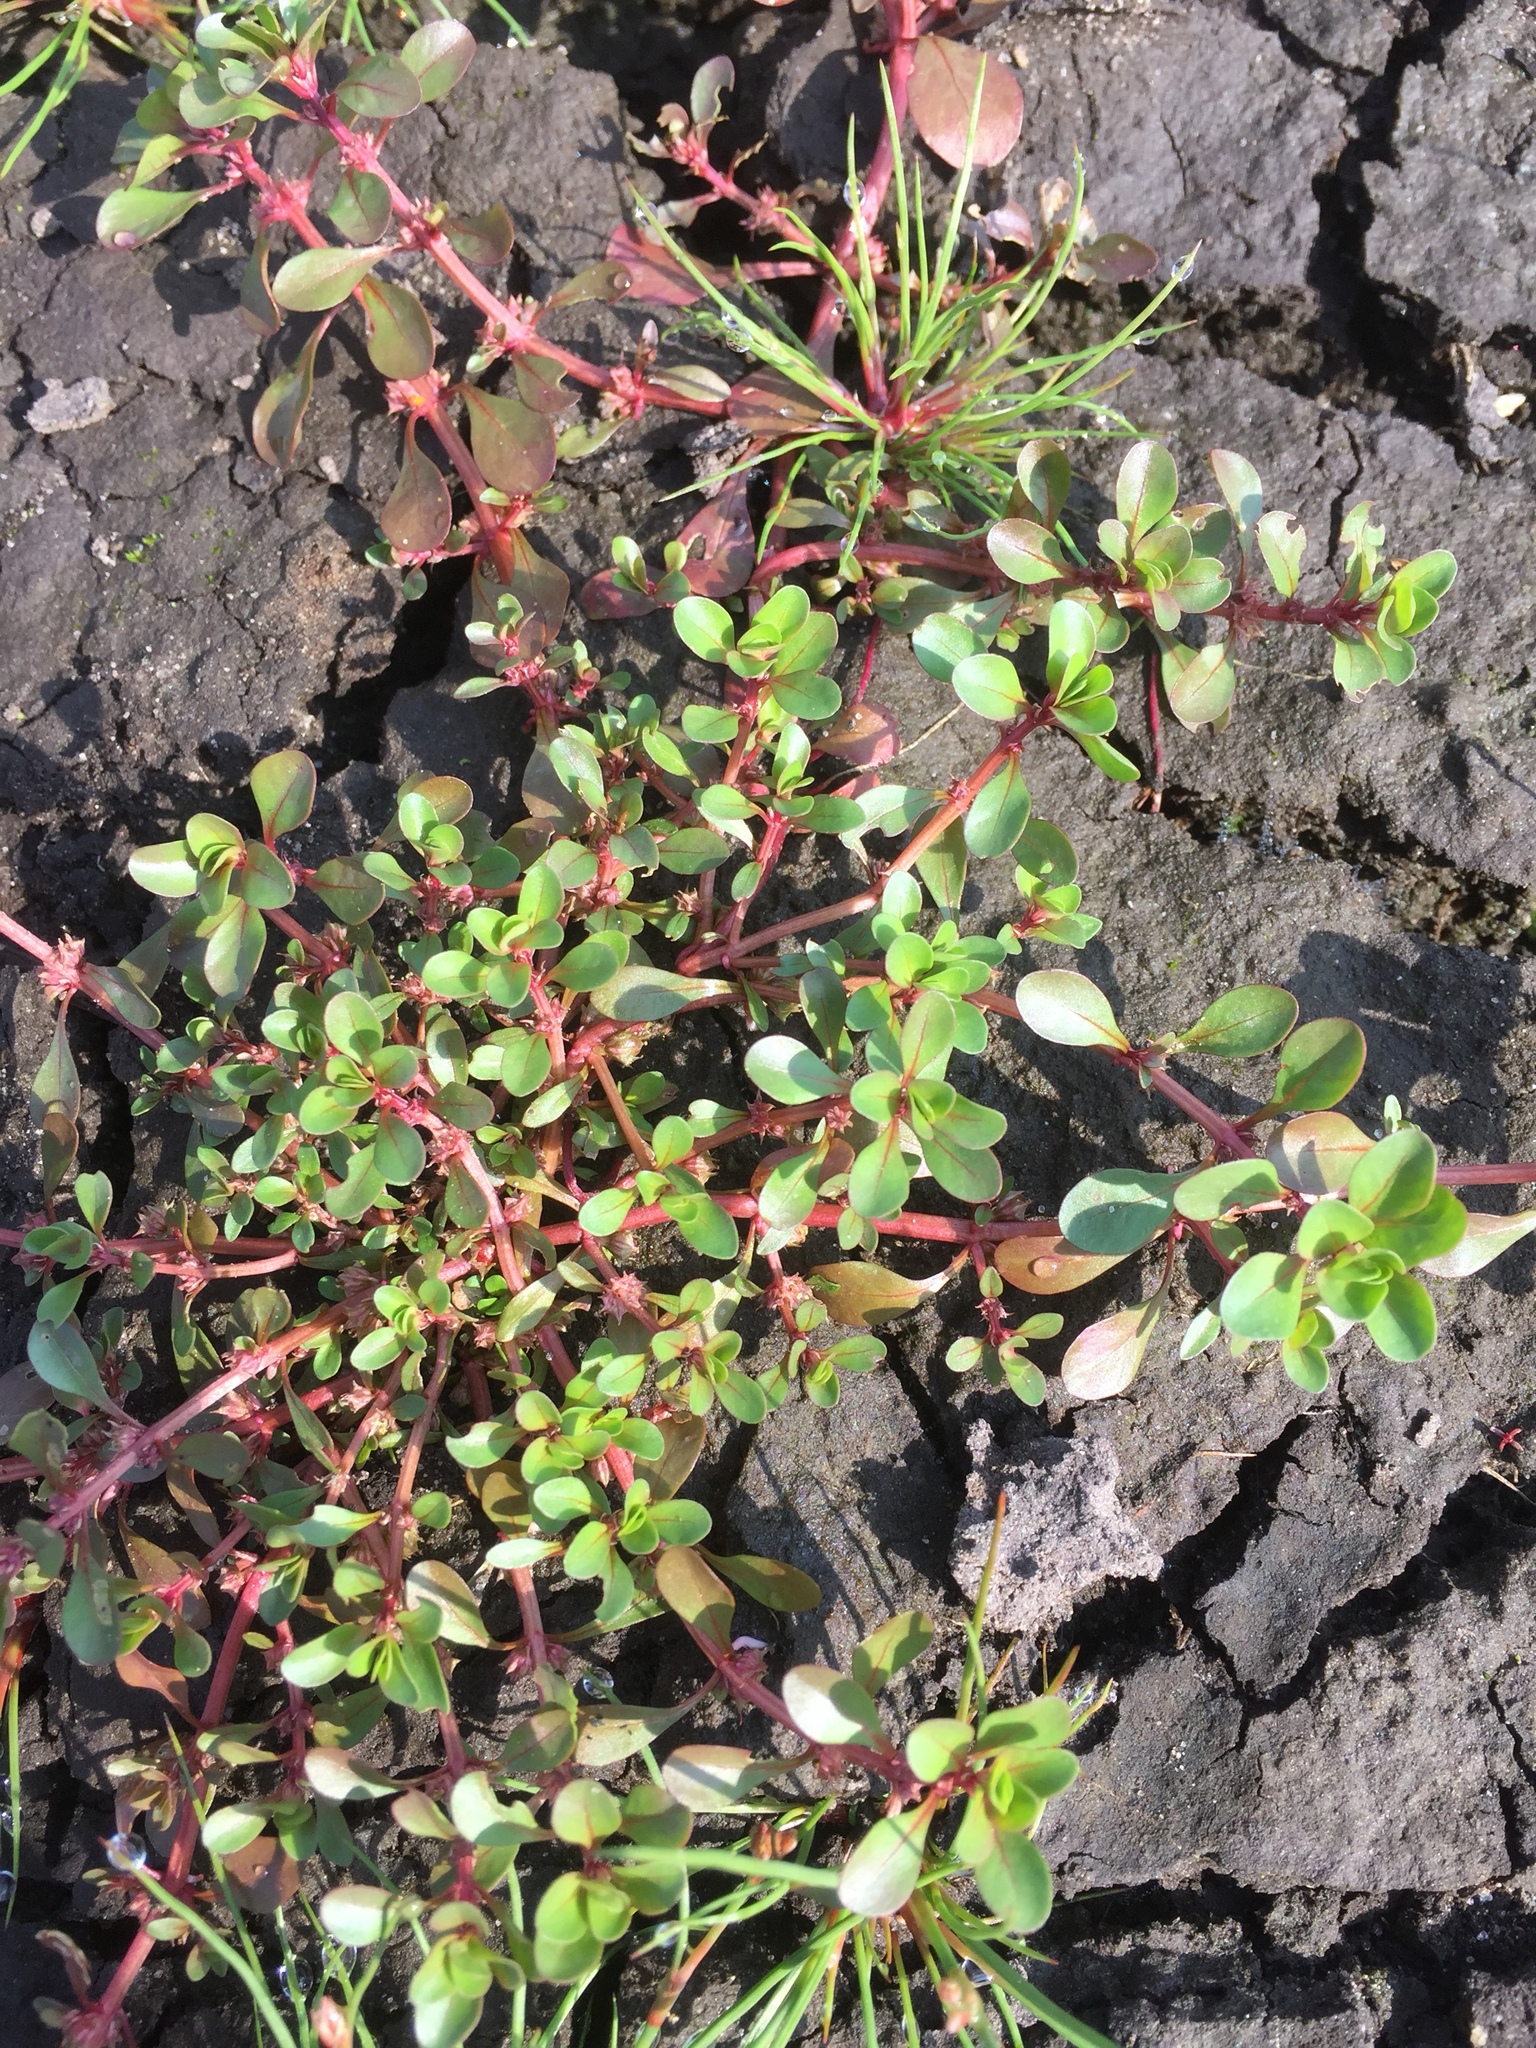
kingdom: Plantae
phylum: Tracheophyta
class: Magnoliopsida
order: Myrtales
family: Lythraceae
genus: Lythrum
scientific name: Lythrum portula
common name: Water purslane
